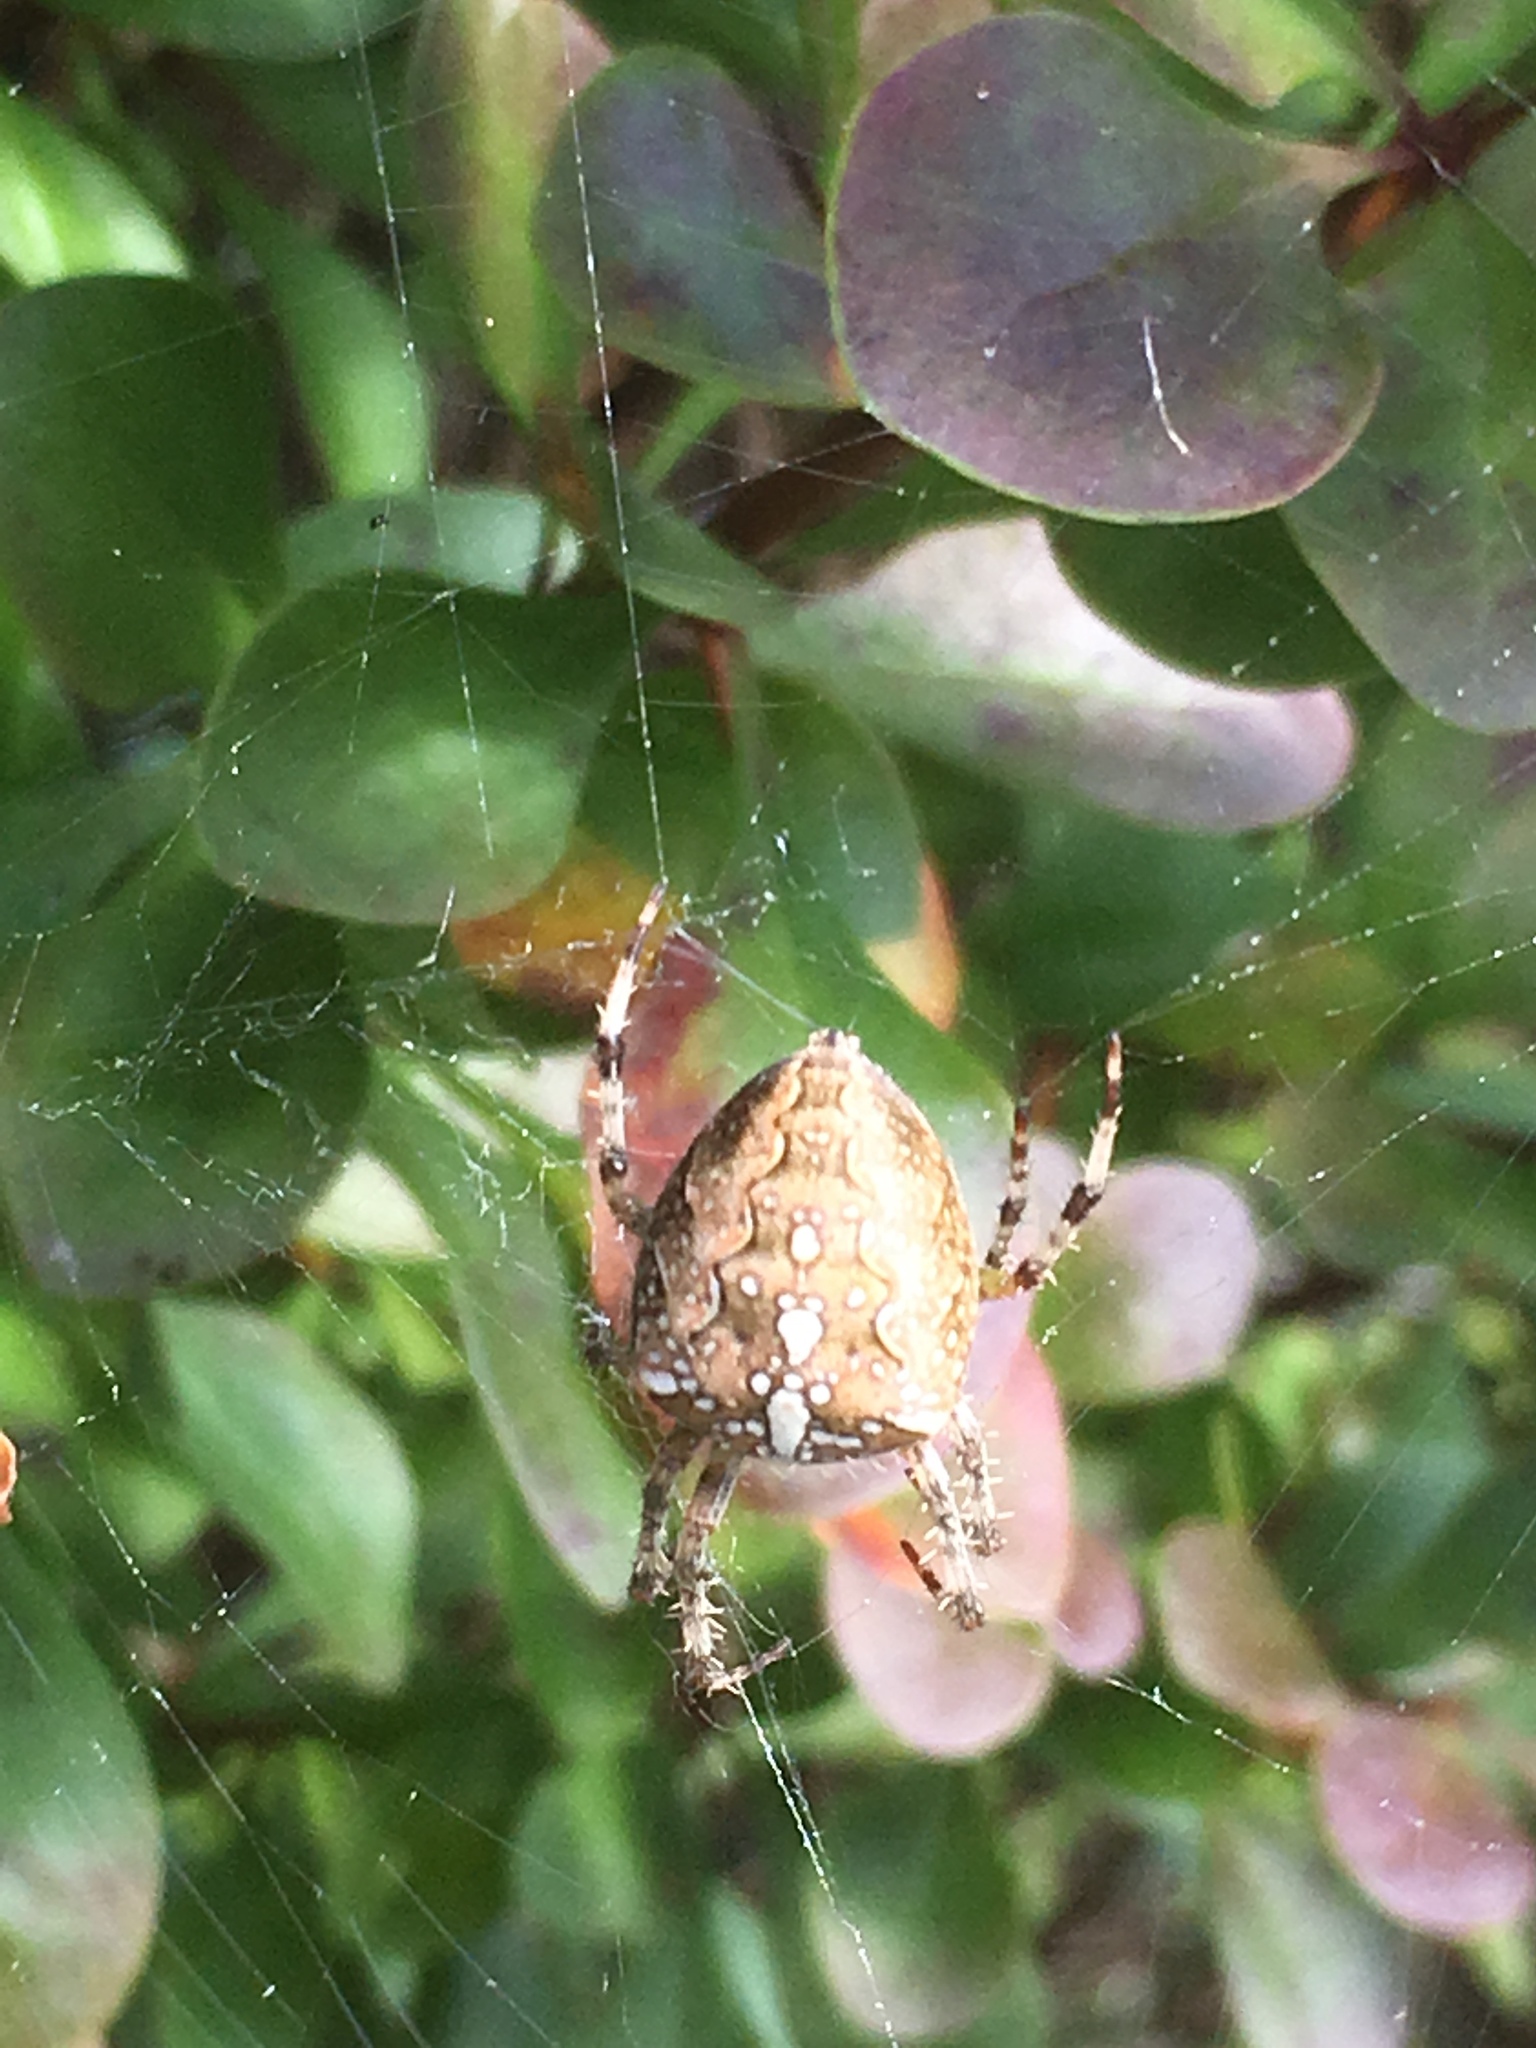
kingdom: Animalia
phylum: Arthropoda
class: Arachnida
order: Araneae
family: Araneidae
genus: Araneus
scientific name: Araneus diadematus
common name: Cross orbweaver
